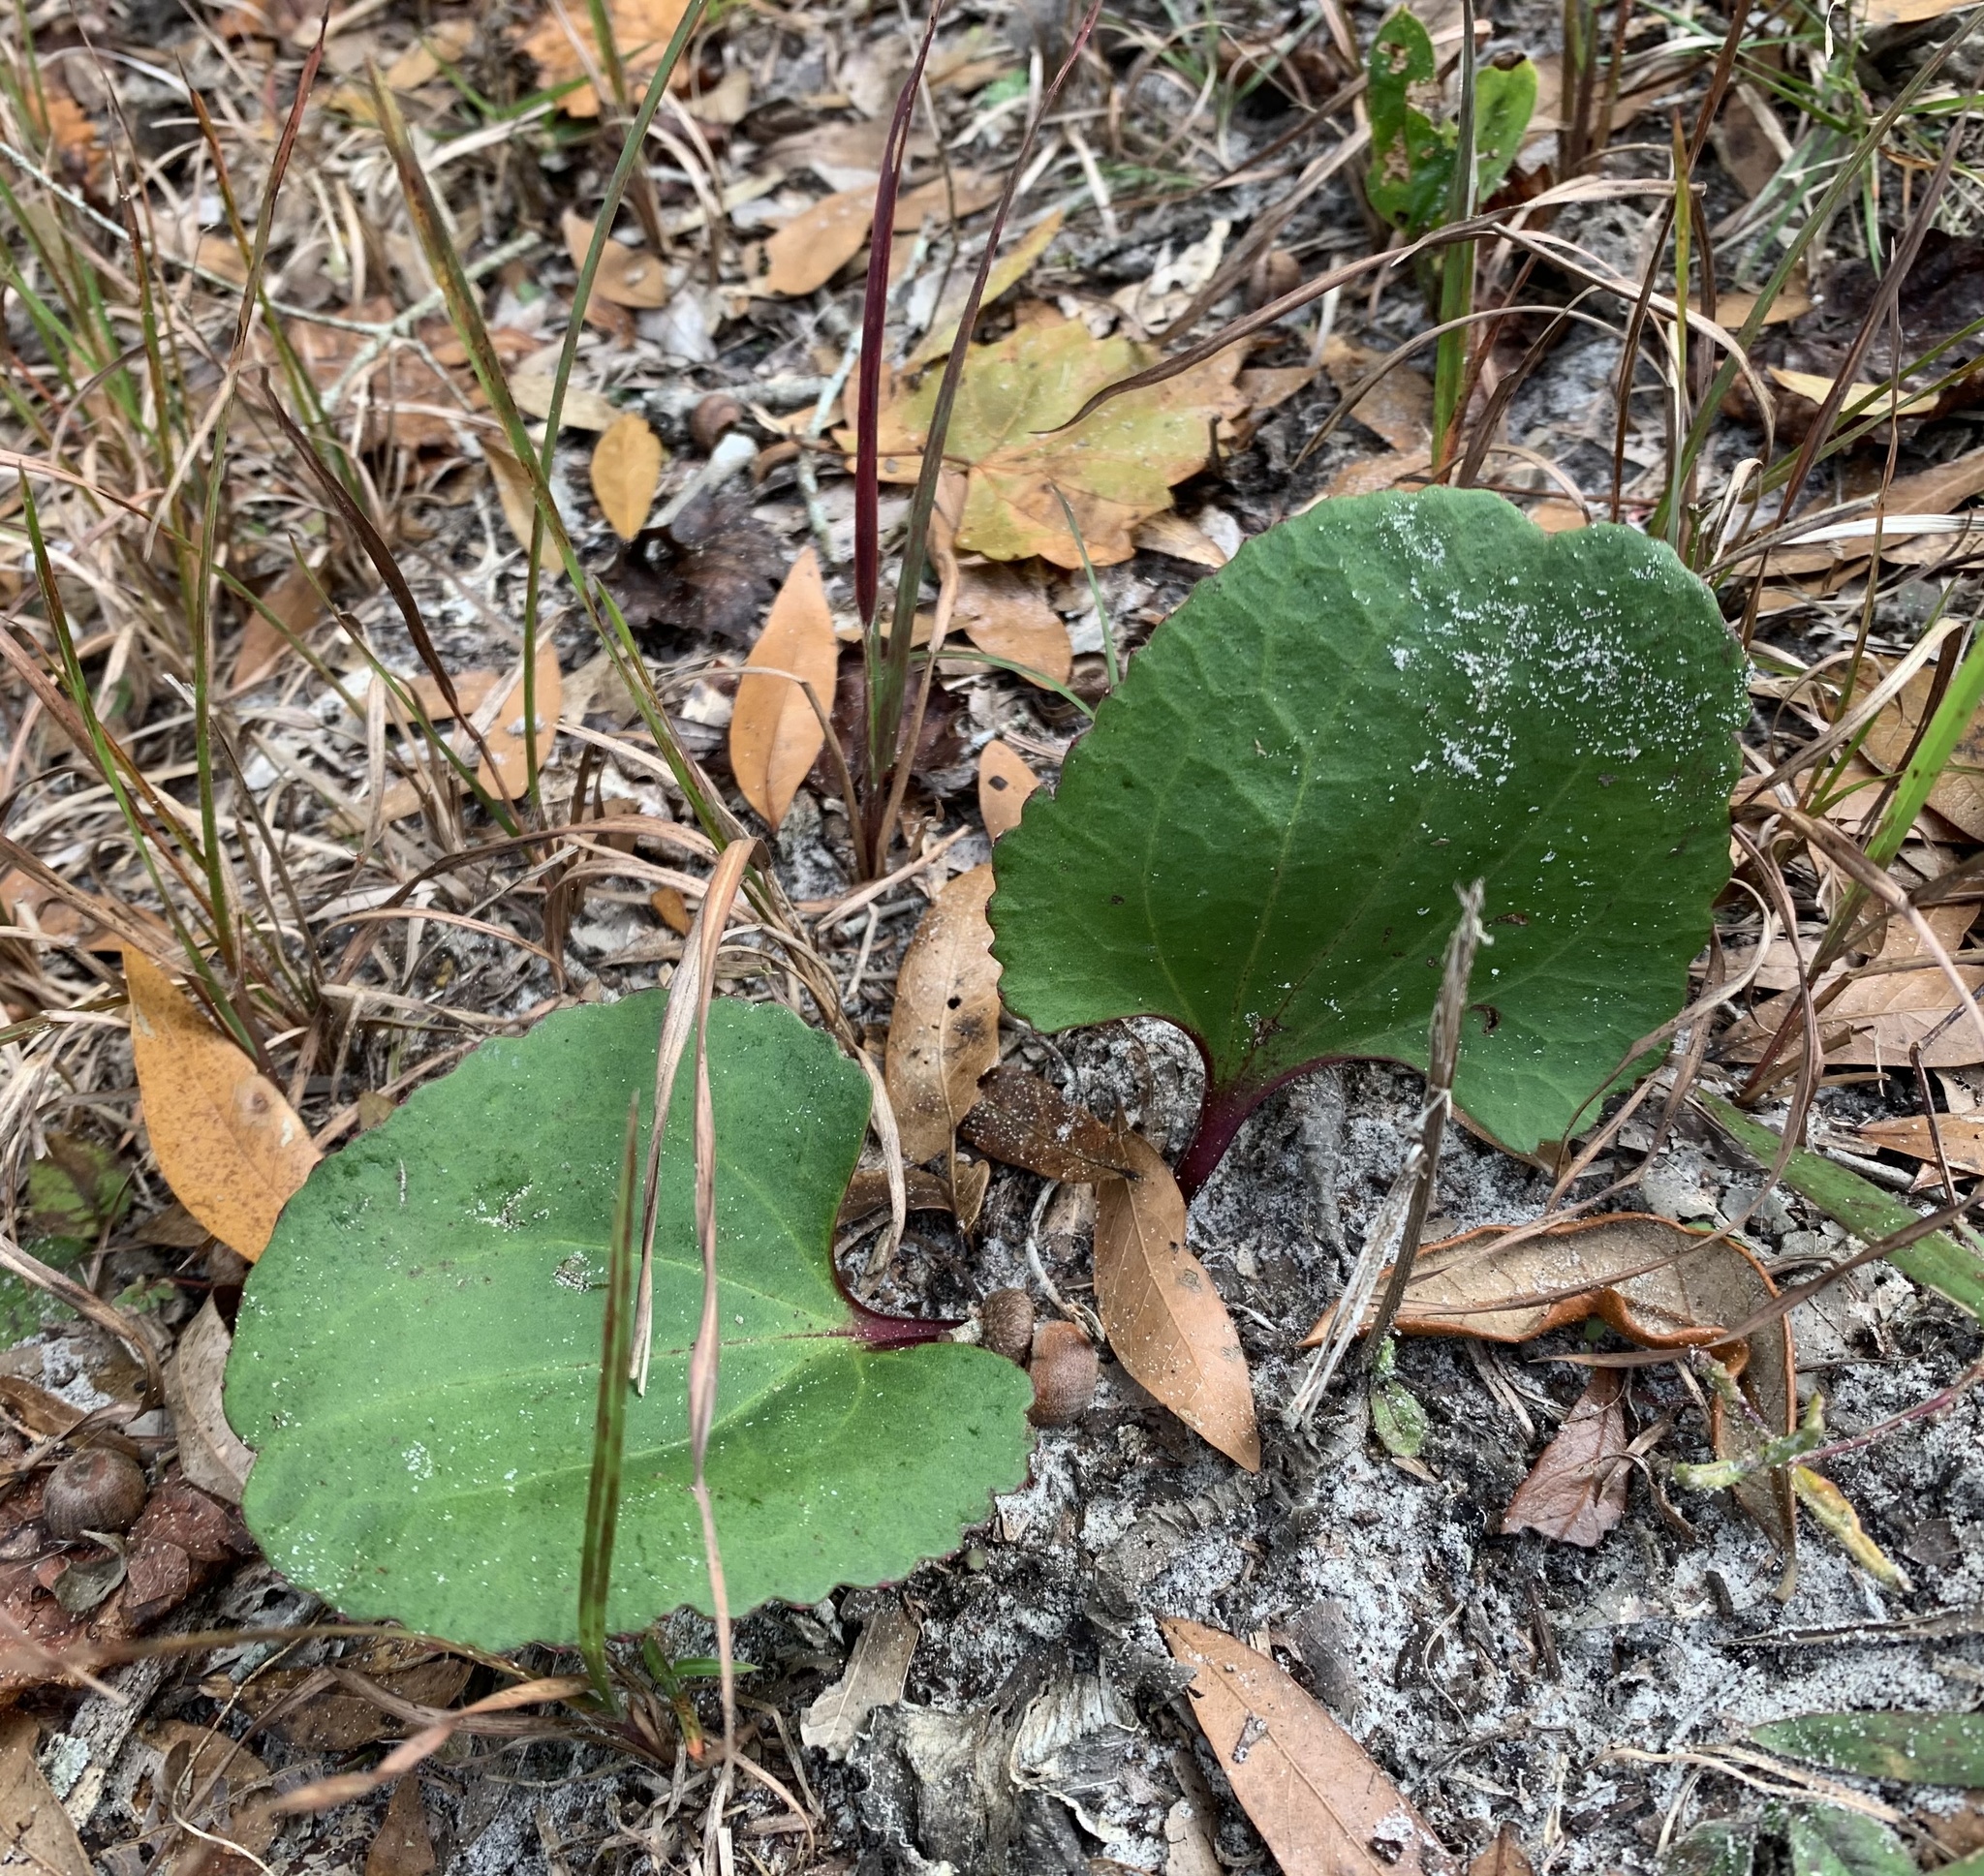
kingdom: Plantae
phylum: Tracheophyta
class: Magnoliopsida
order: Asterales
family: Asteraceae
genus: Arnoglossum
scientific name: Arnoglossum floridanum
